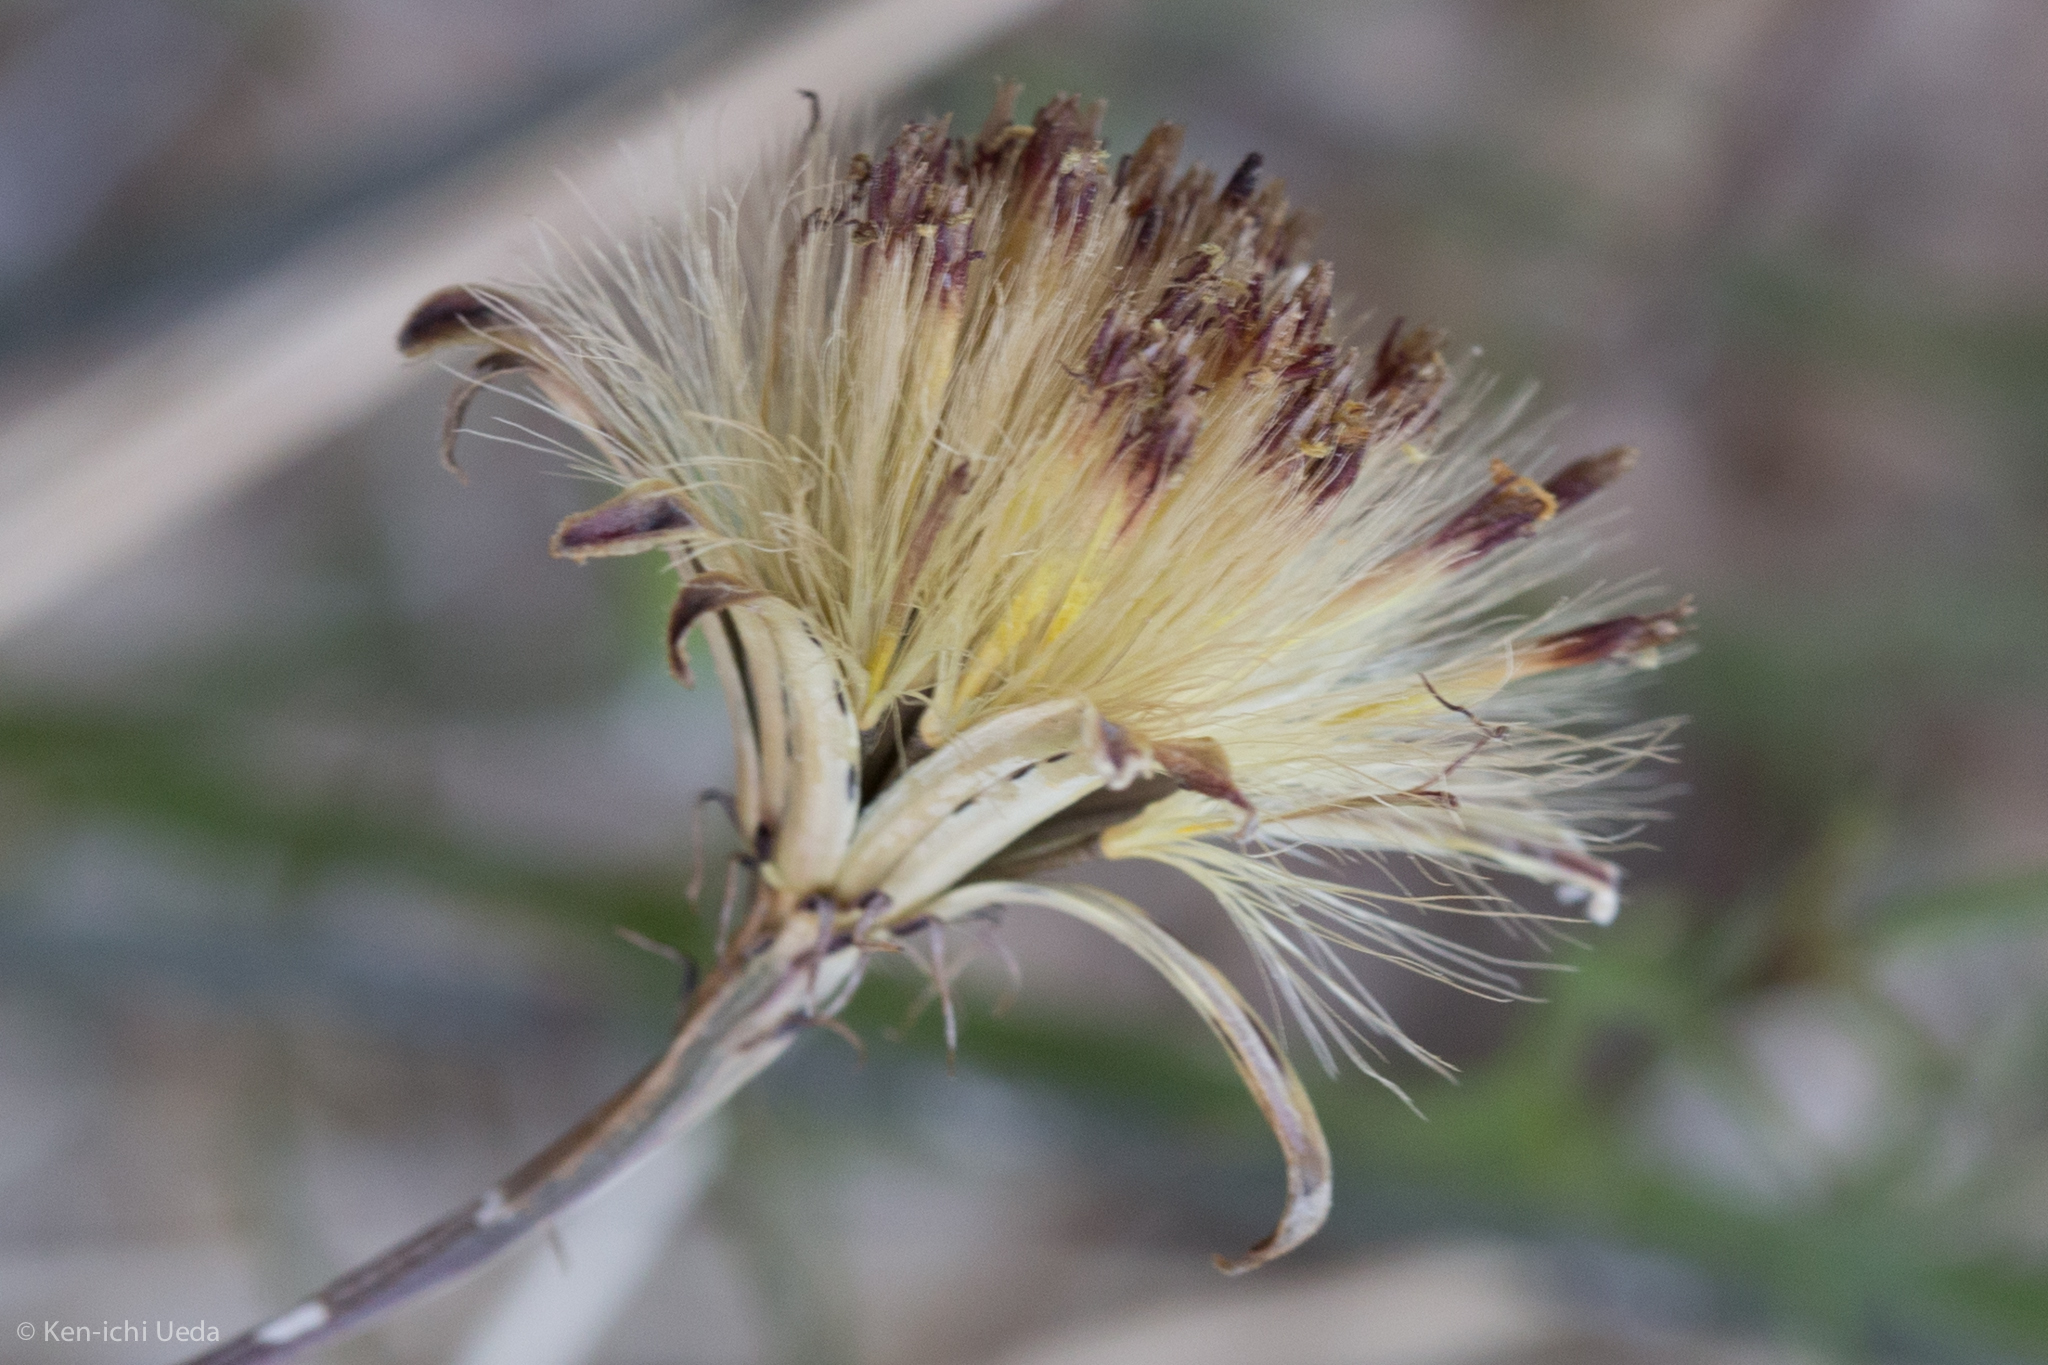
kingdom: Plantae
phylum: Tracheophyta
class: Magnoliopsida
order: Asterales
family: Asteraceae
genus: Adenophyllum
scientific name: Adenophyllum porophylloides
